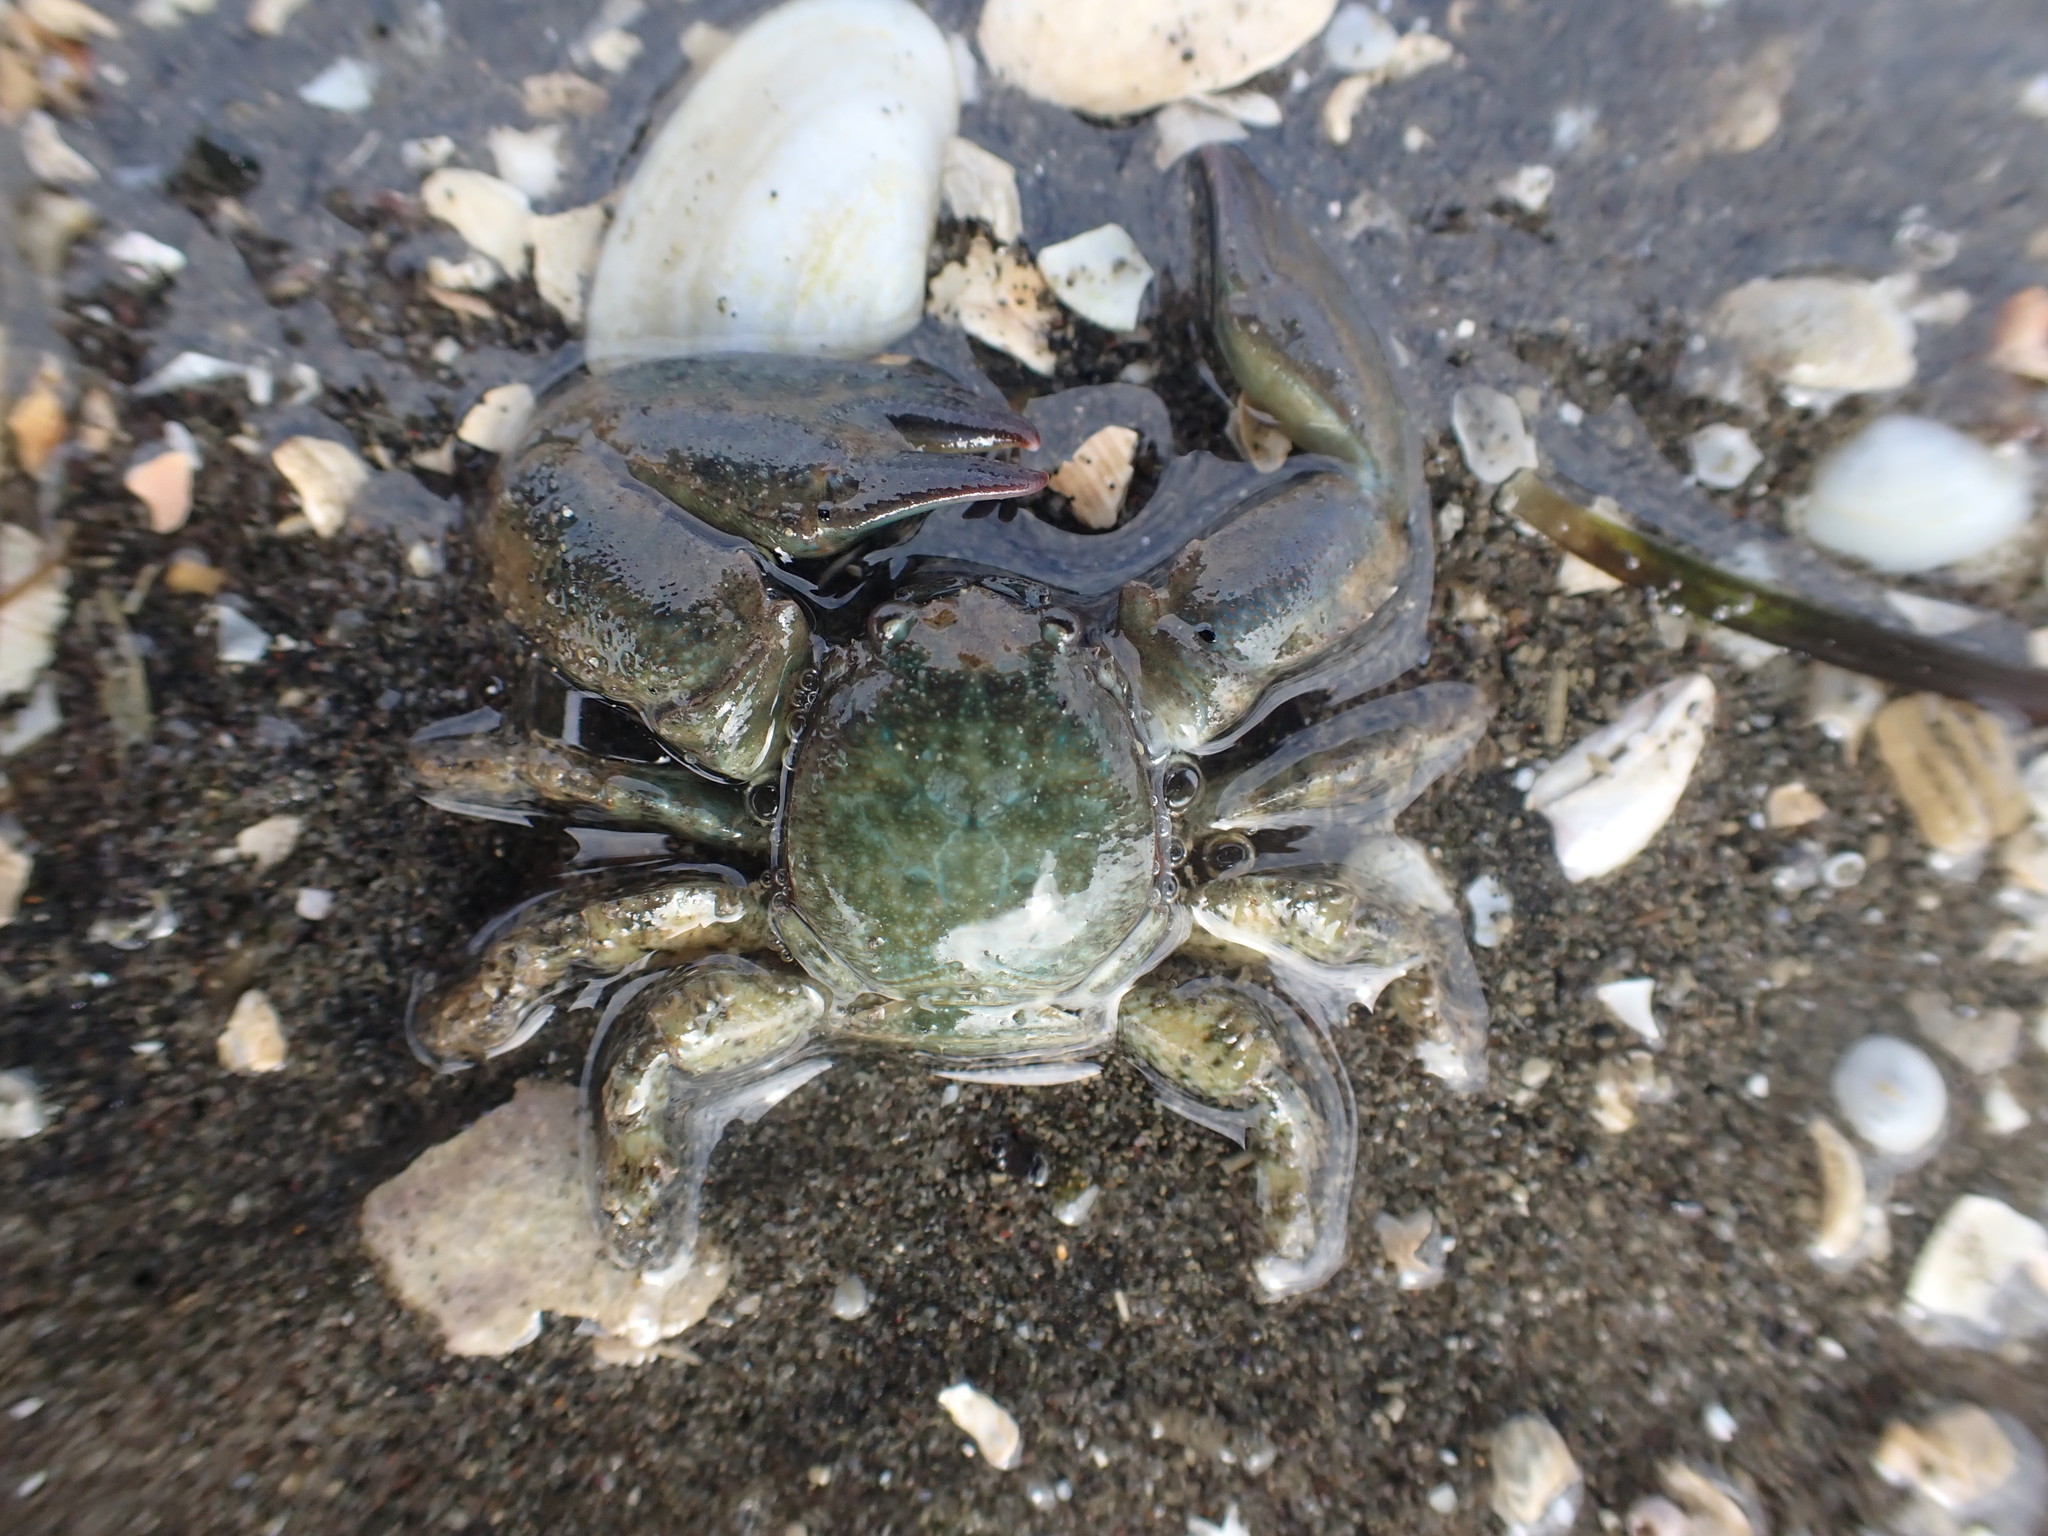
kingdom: Animalia
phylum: Arthropoda
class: Malacostraca
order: Decapoda
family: Porcellanidae
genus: Petrolisthes
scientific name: Petrolisthes elongatus
